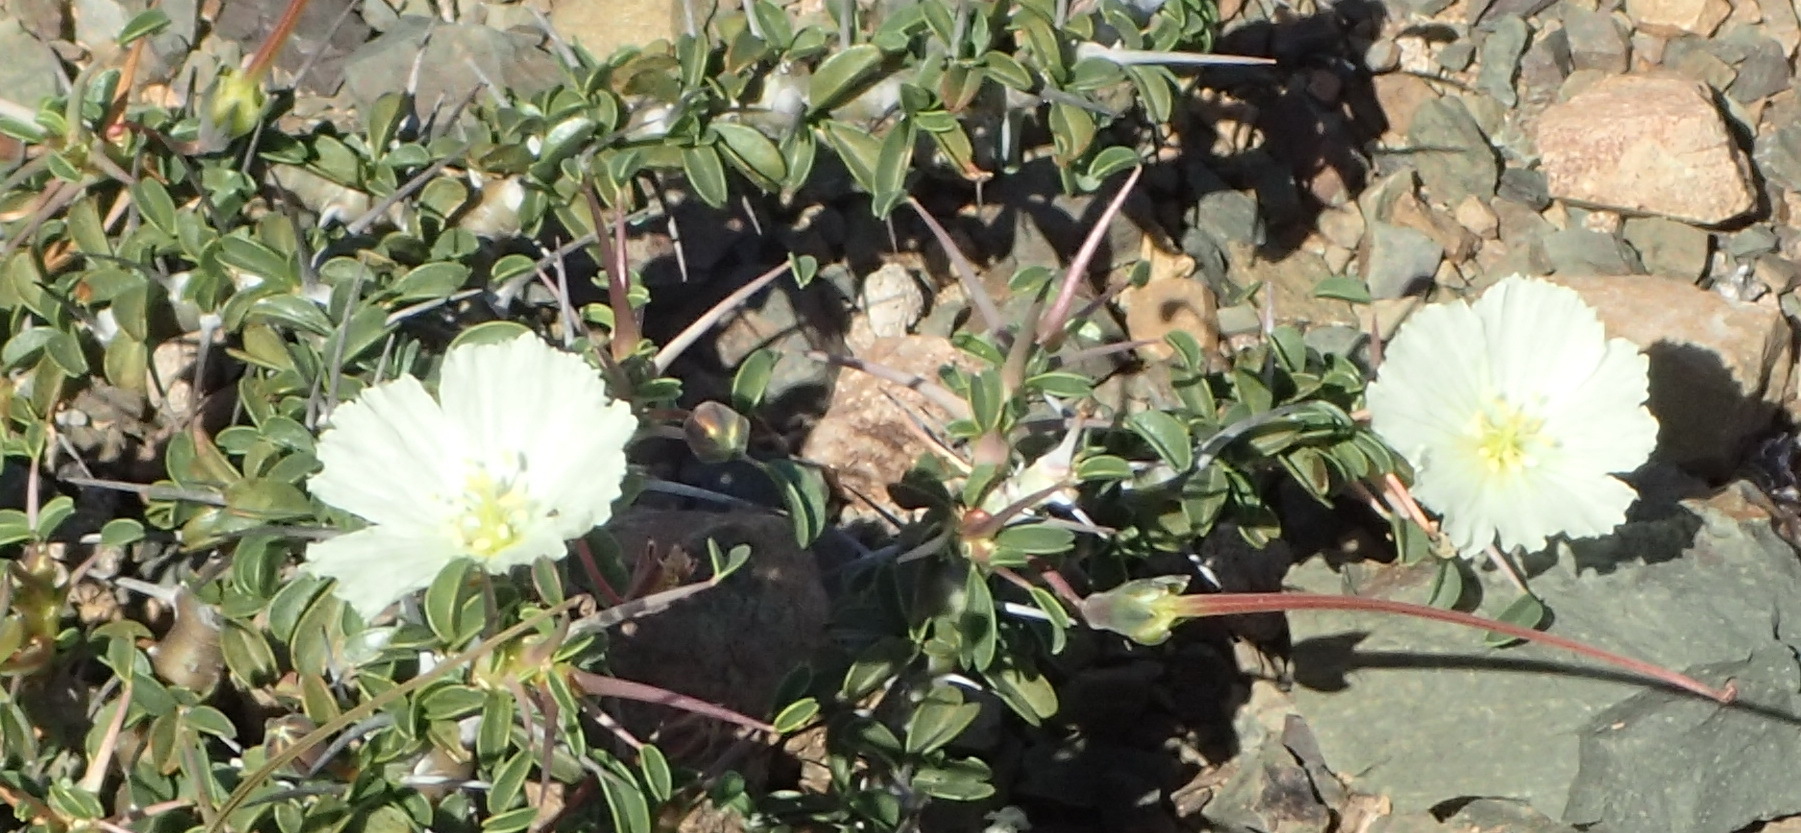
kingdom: Plantae
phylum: Tracheophyta
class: Magnoliopsida
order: Geraniales
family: Geraniaceae
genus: Monsonia
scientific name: Monsonia camdeboensis
